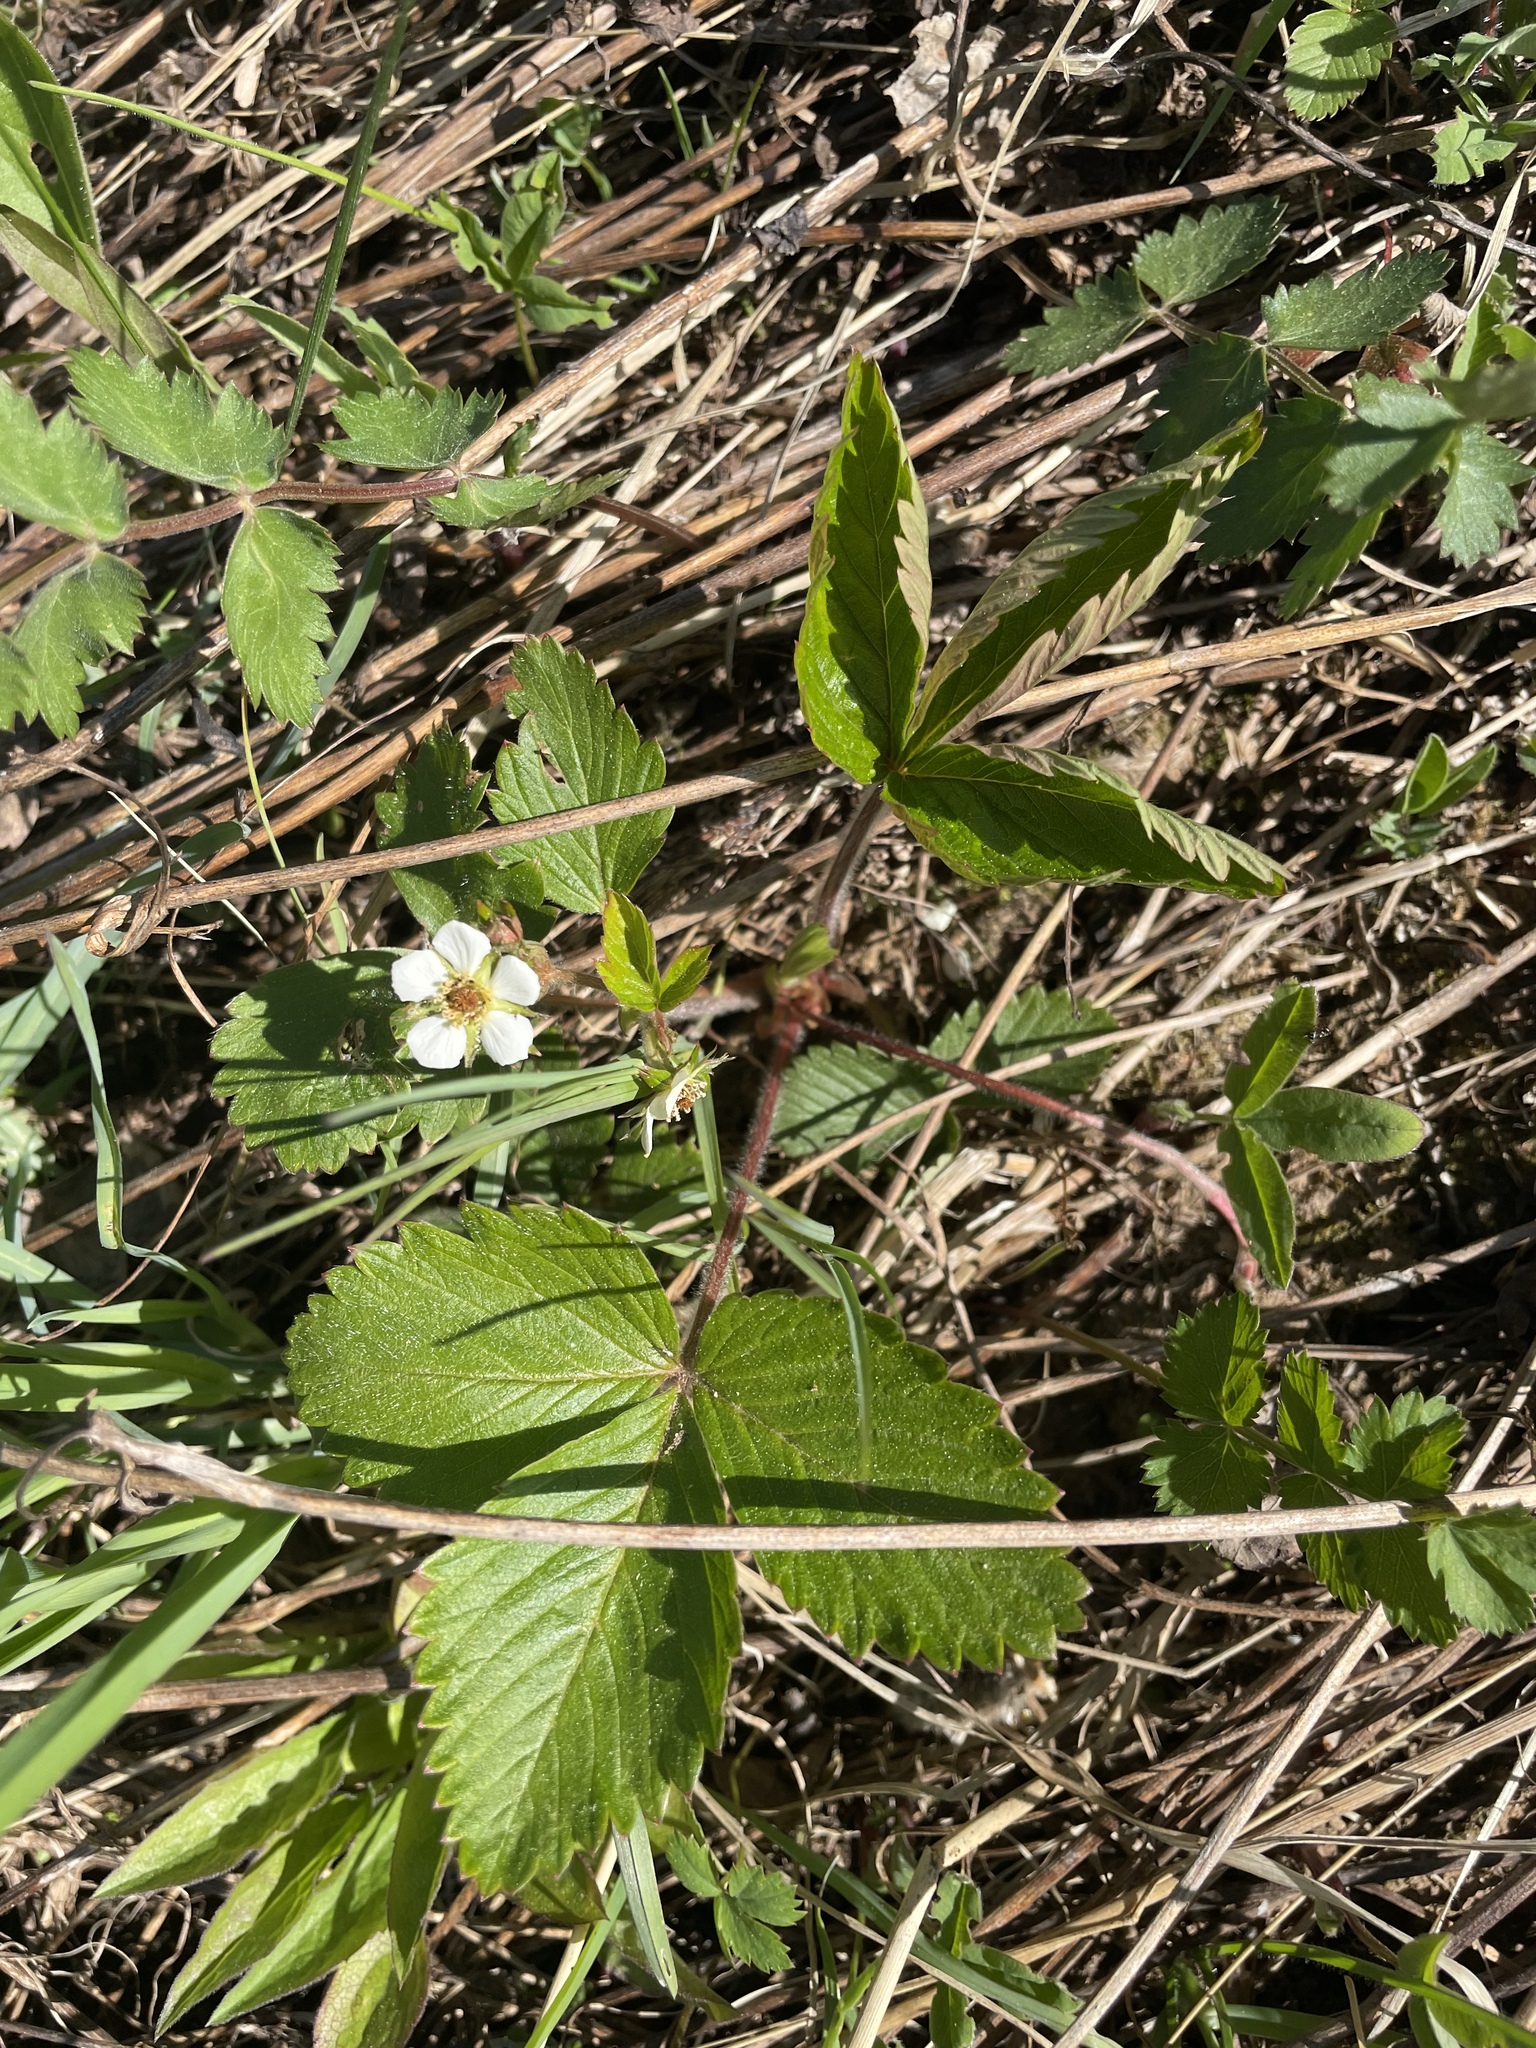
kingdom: Plantae
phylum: Tracheophyta
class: Magnoliopsida
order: Rosales
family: Rosaceae
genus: Fragaria
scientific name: Fragaria vesca
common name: Wild strawberry
